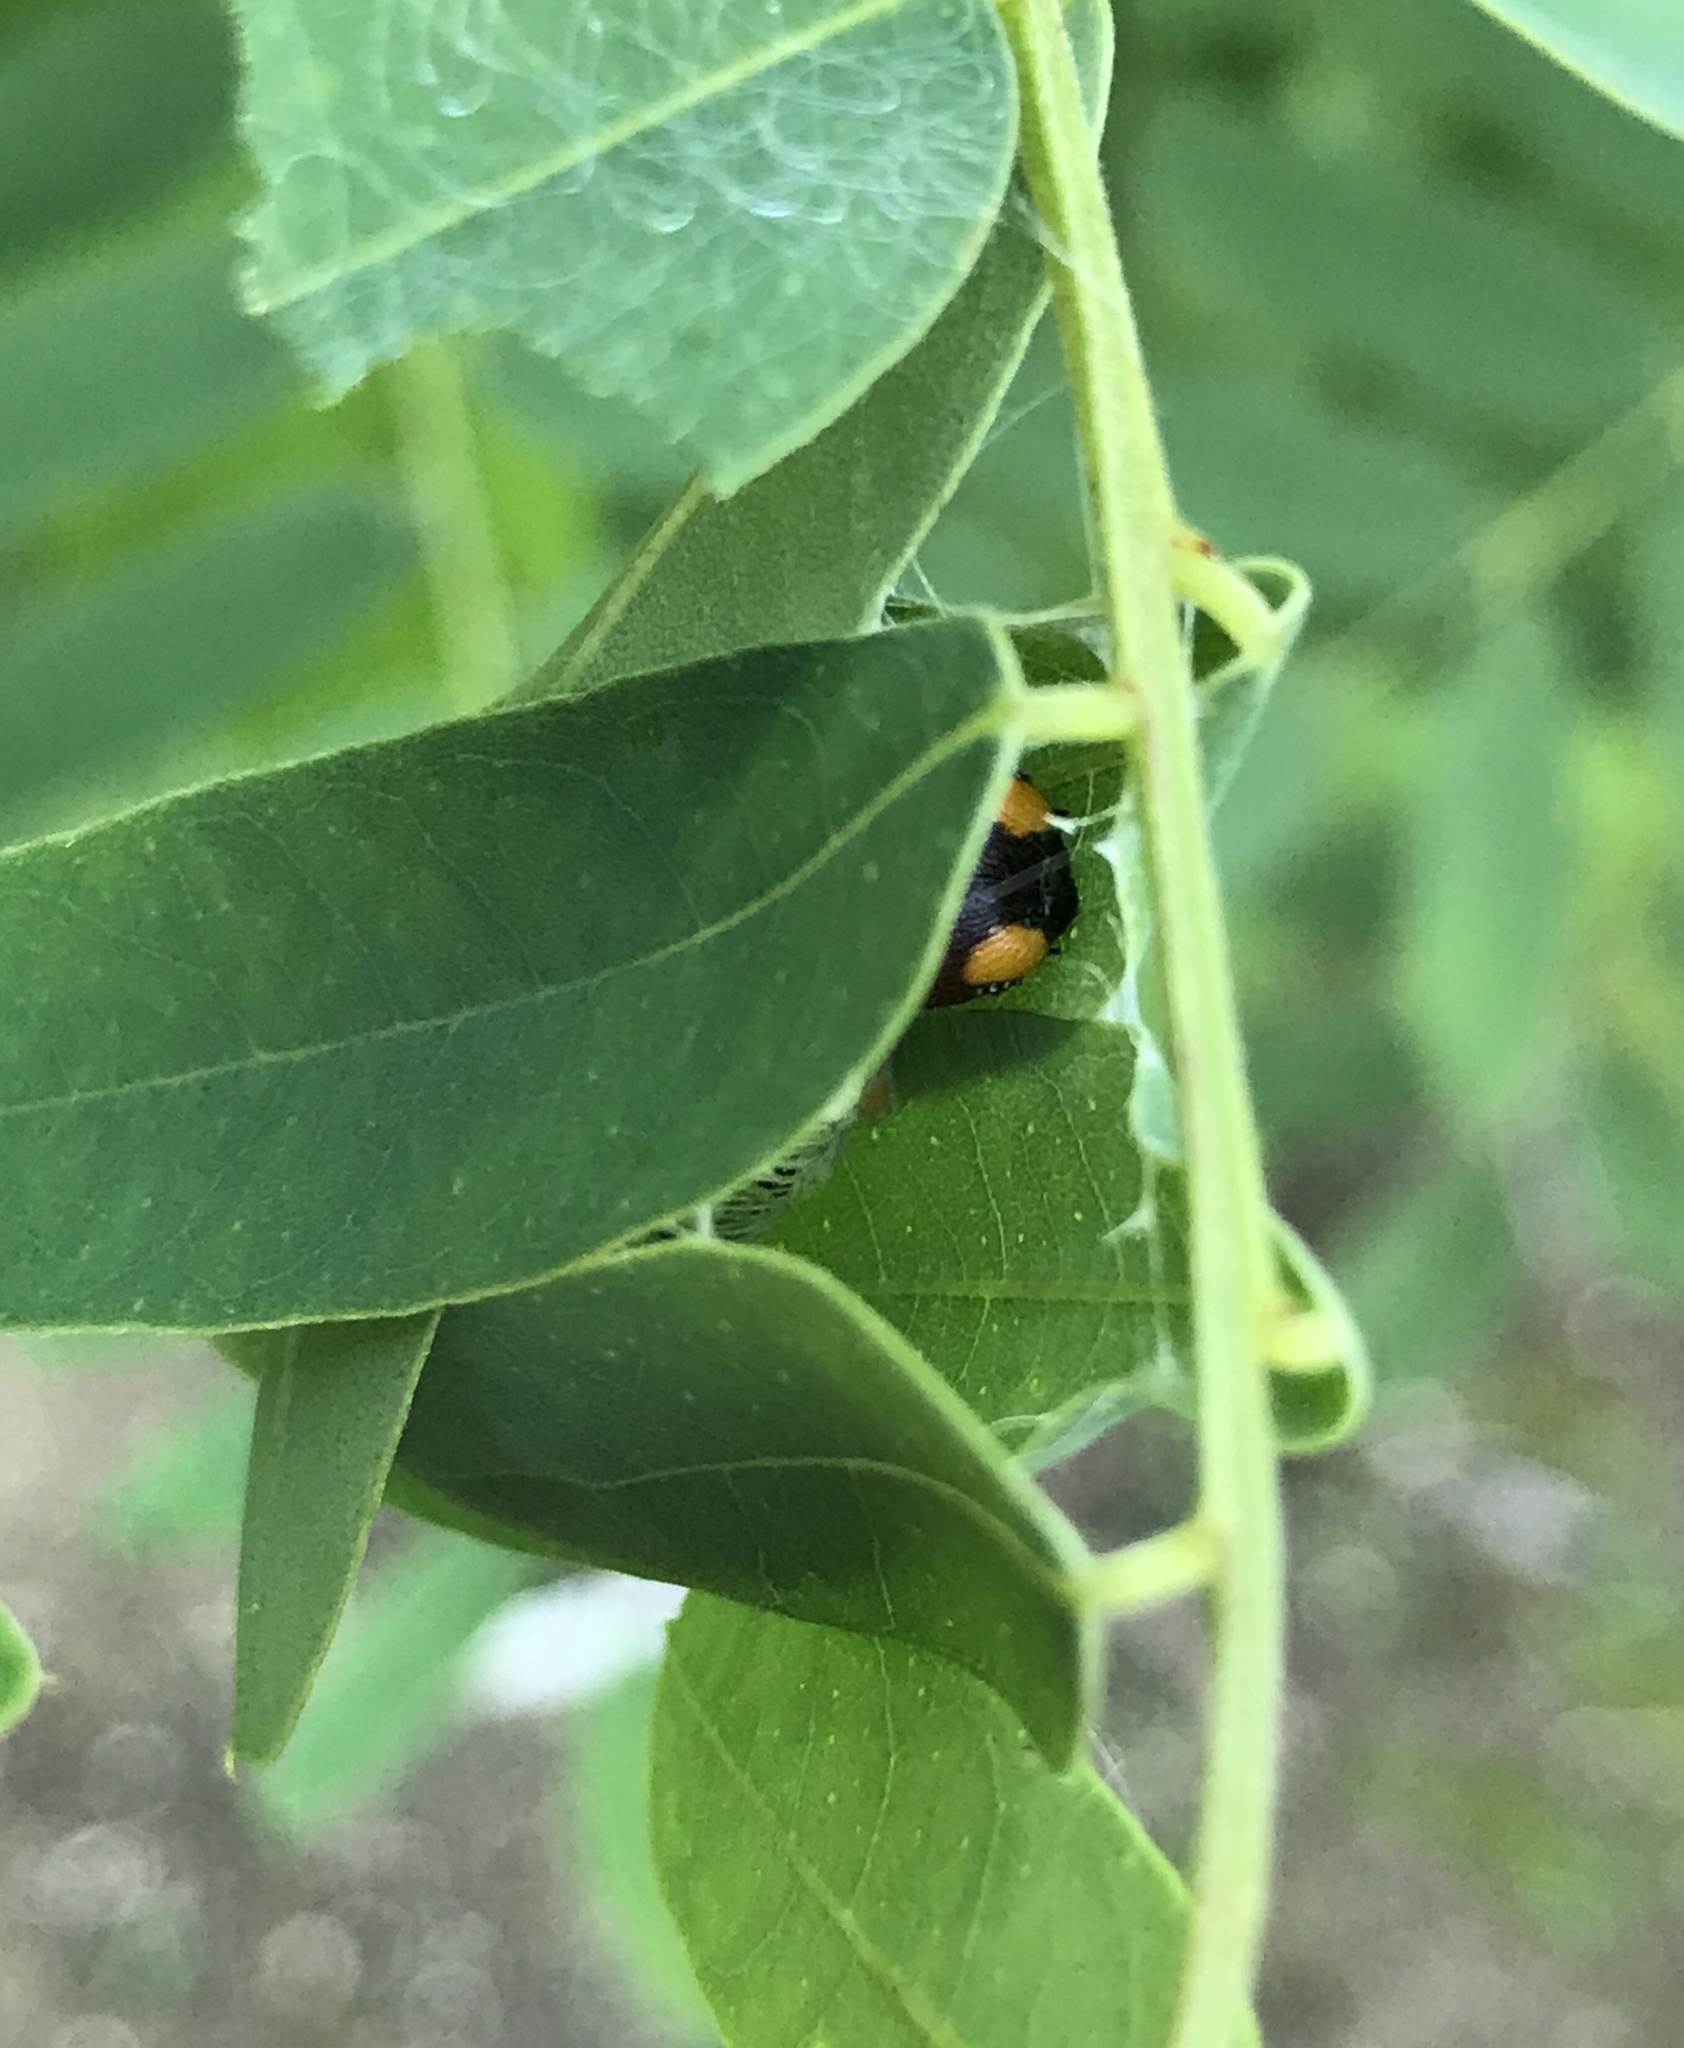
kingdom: Animalia
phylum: Arthropoda
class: Insecta
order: Lepidoptera
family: Hesperiidae
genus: Epargyreus
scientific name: Epargyreus clarus
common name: Silver-spotted skipper
